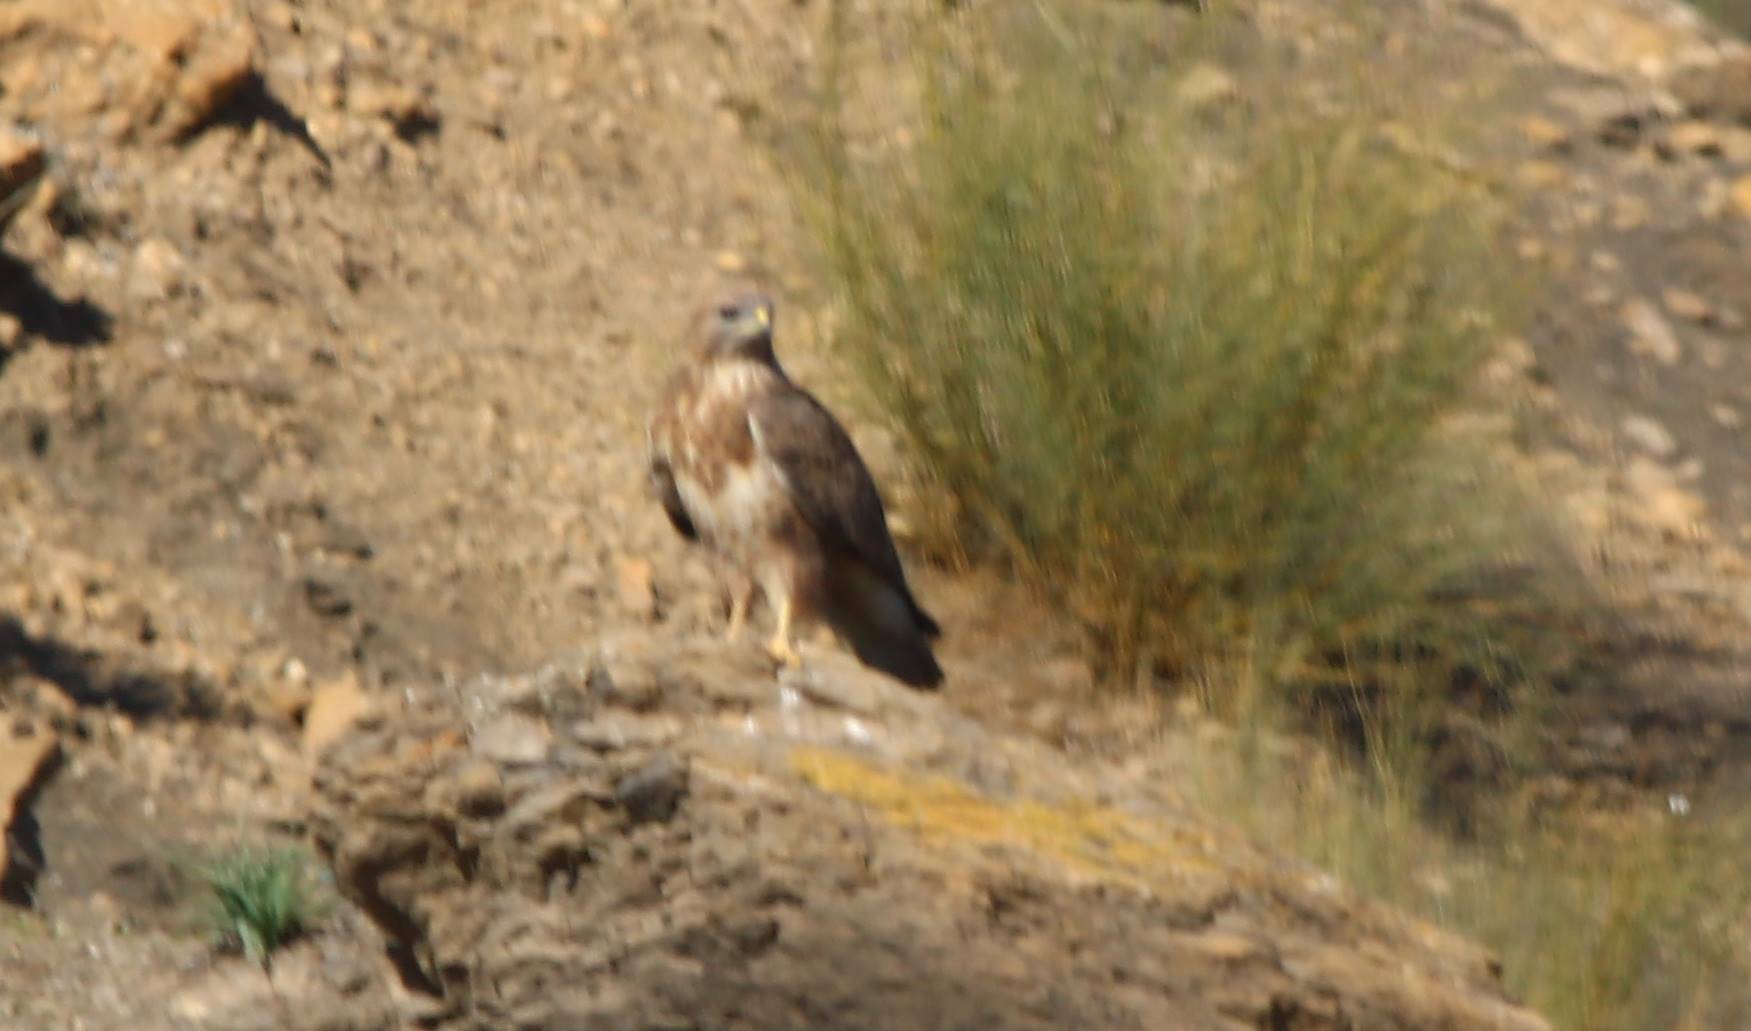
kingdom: Animalia
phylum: Chordata
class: Aves
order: Accipitriformes
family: Accipitridae
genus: Buteo
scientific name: Buteo rufinus
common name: Long-legged buzzard
